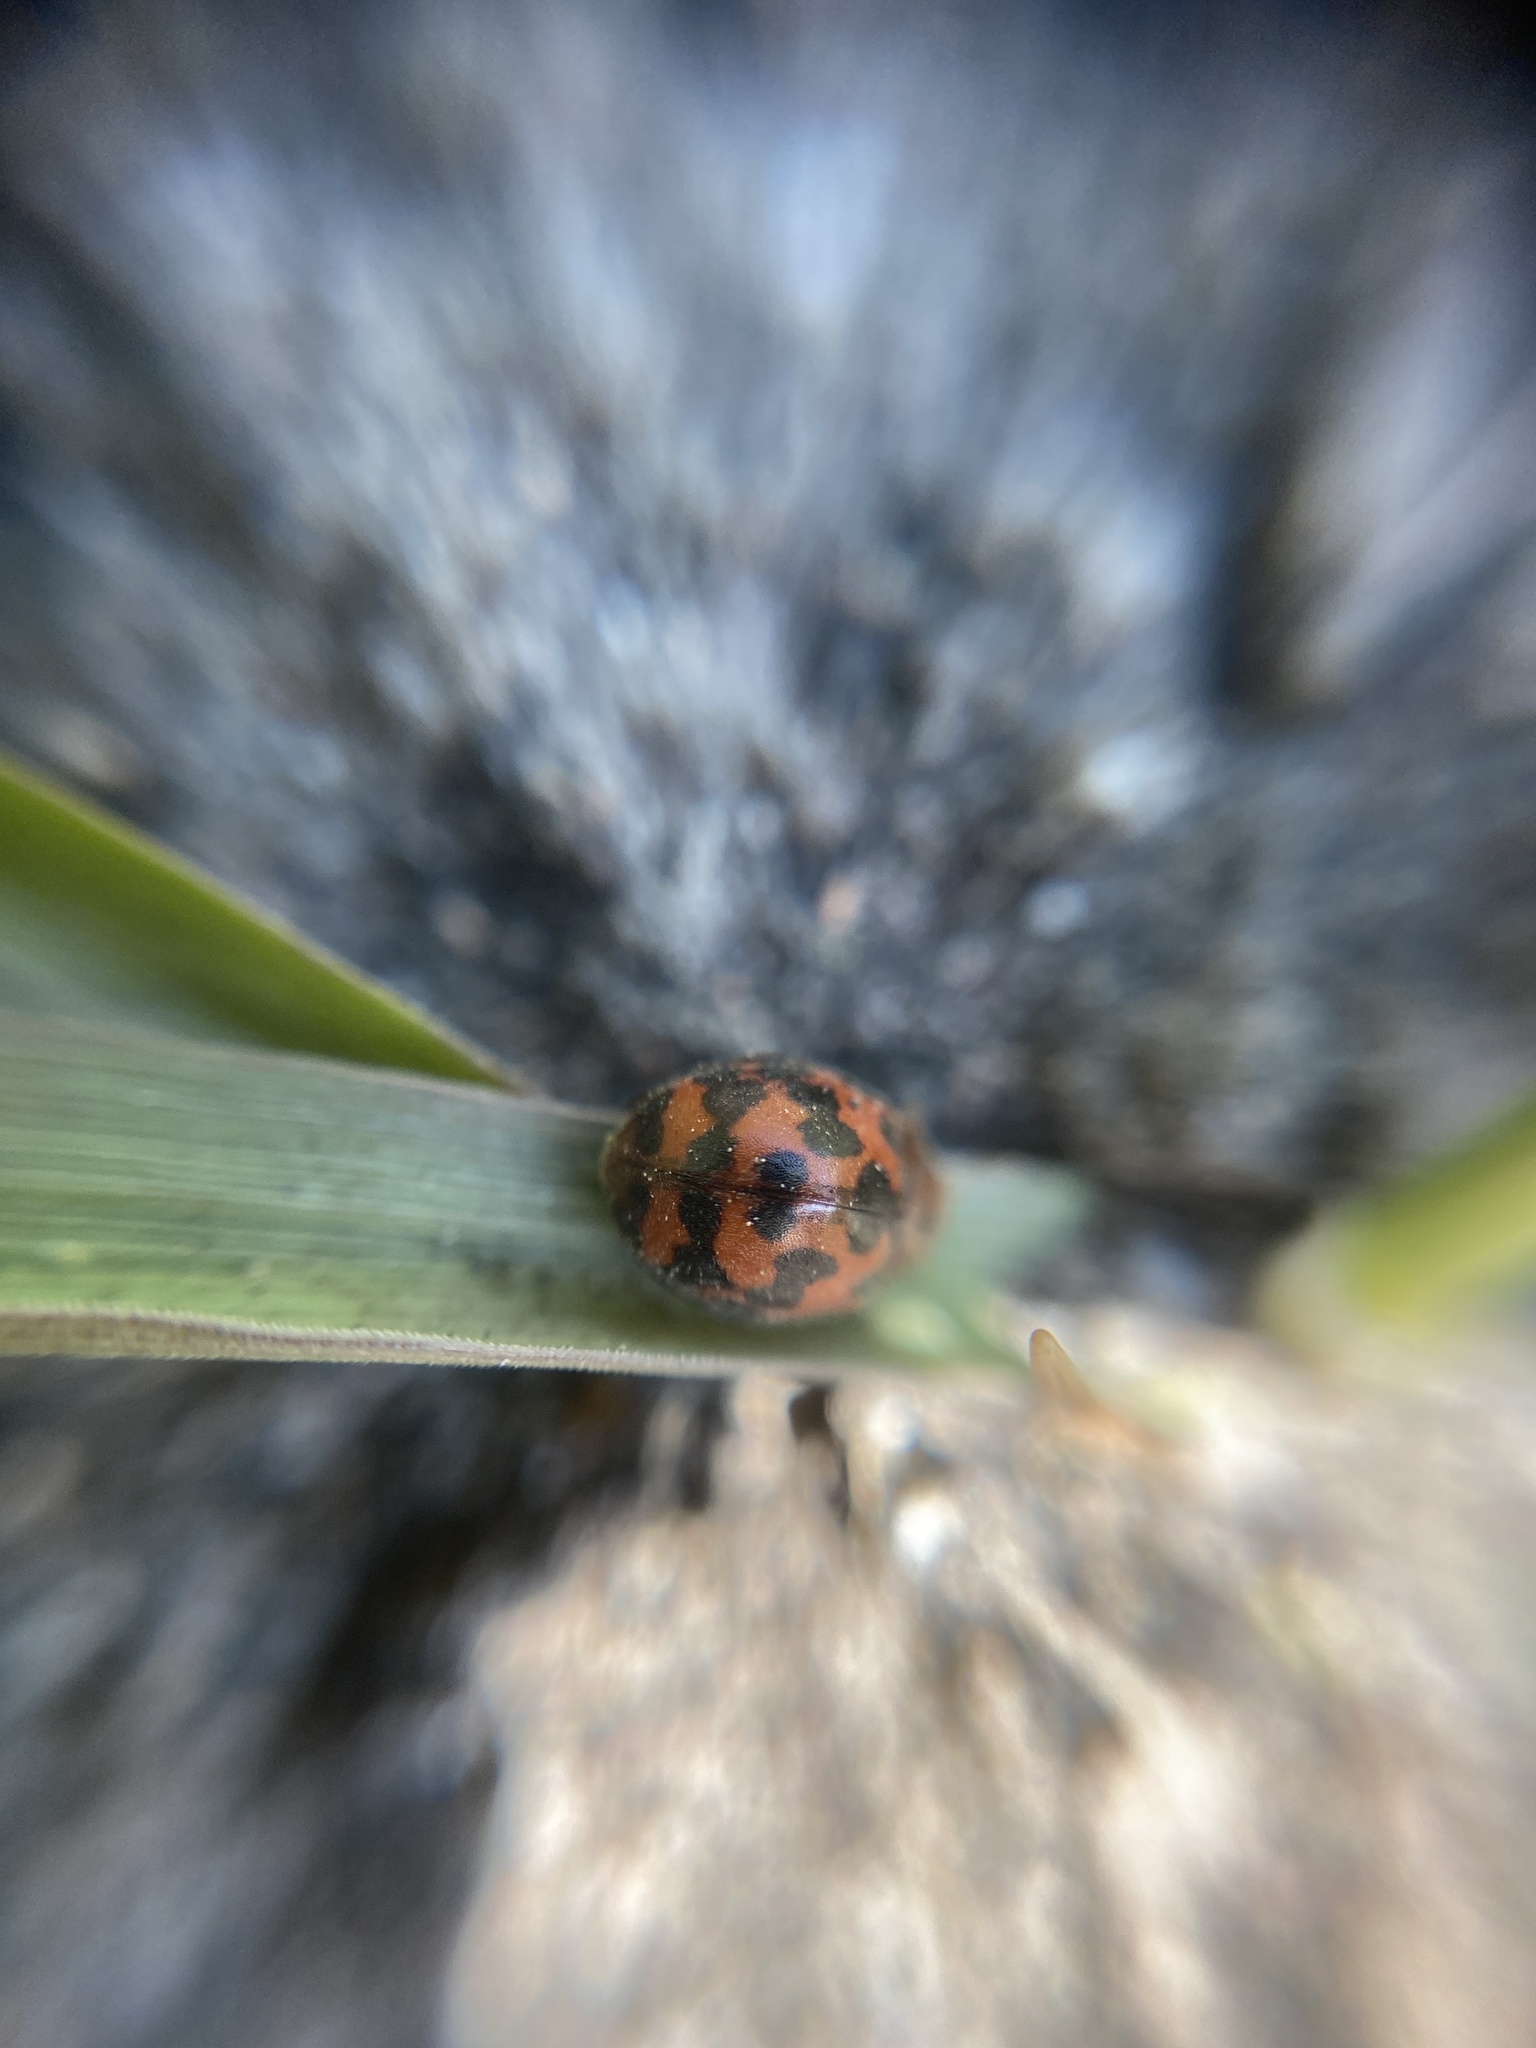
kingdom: Animalia
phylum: Arthropoda
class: Insecta
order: Coleoptera
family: Coccinellidae
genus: Subcoccinella
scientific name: Subcoccinella vigintiquatuorpunctata
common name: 24-spot ladybird
